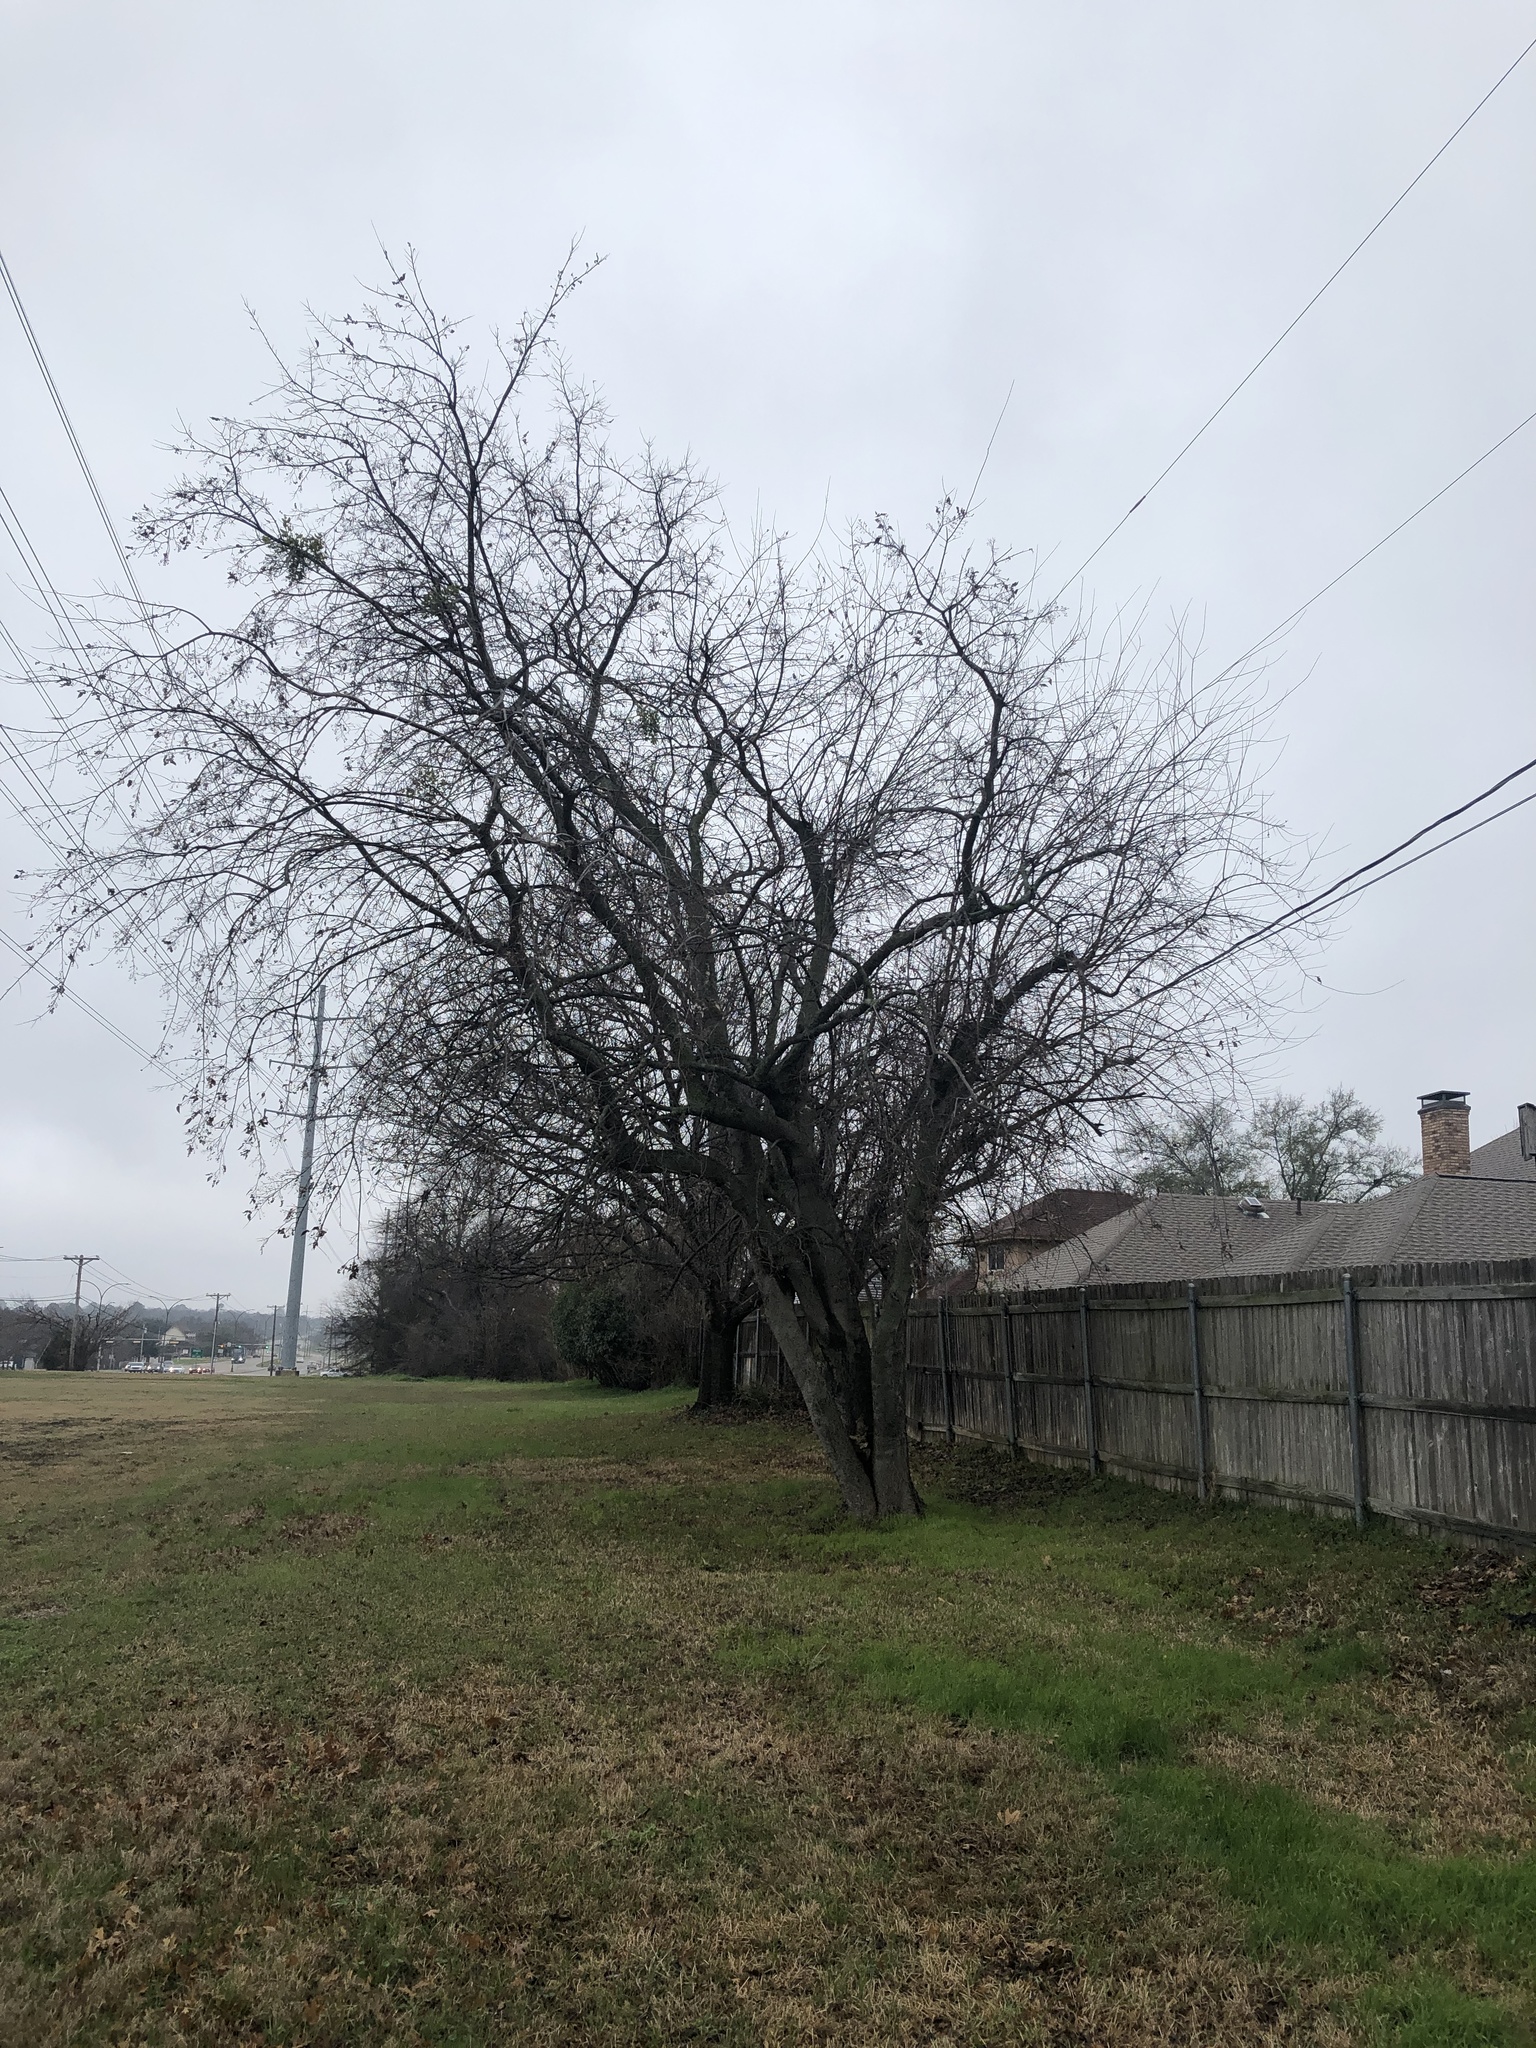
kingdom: Plantae
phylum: Tracheophyta
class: Magnoliopsida
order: Rosales
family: Cannabaceae
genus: Celtis
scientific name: Celtis laevigata
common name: Sugarberry
